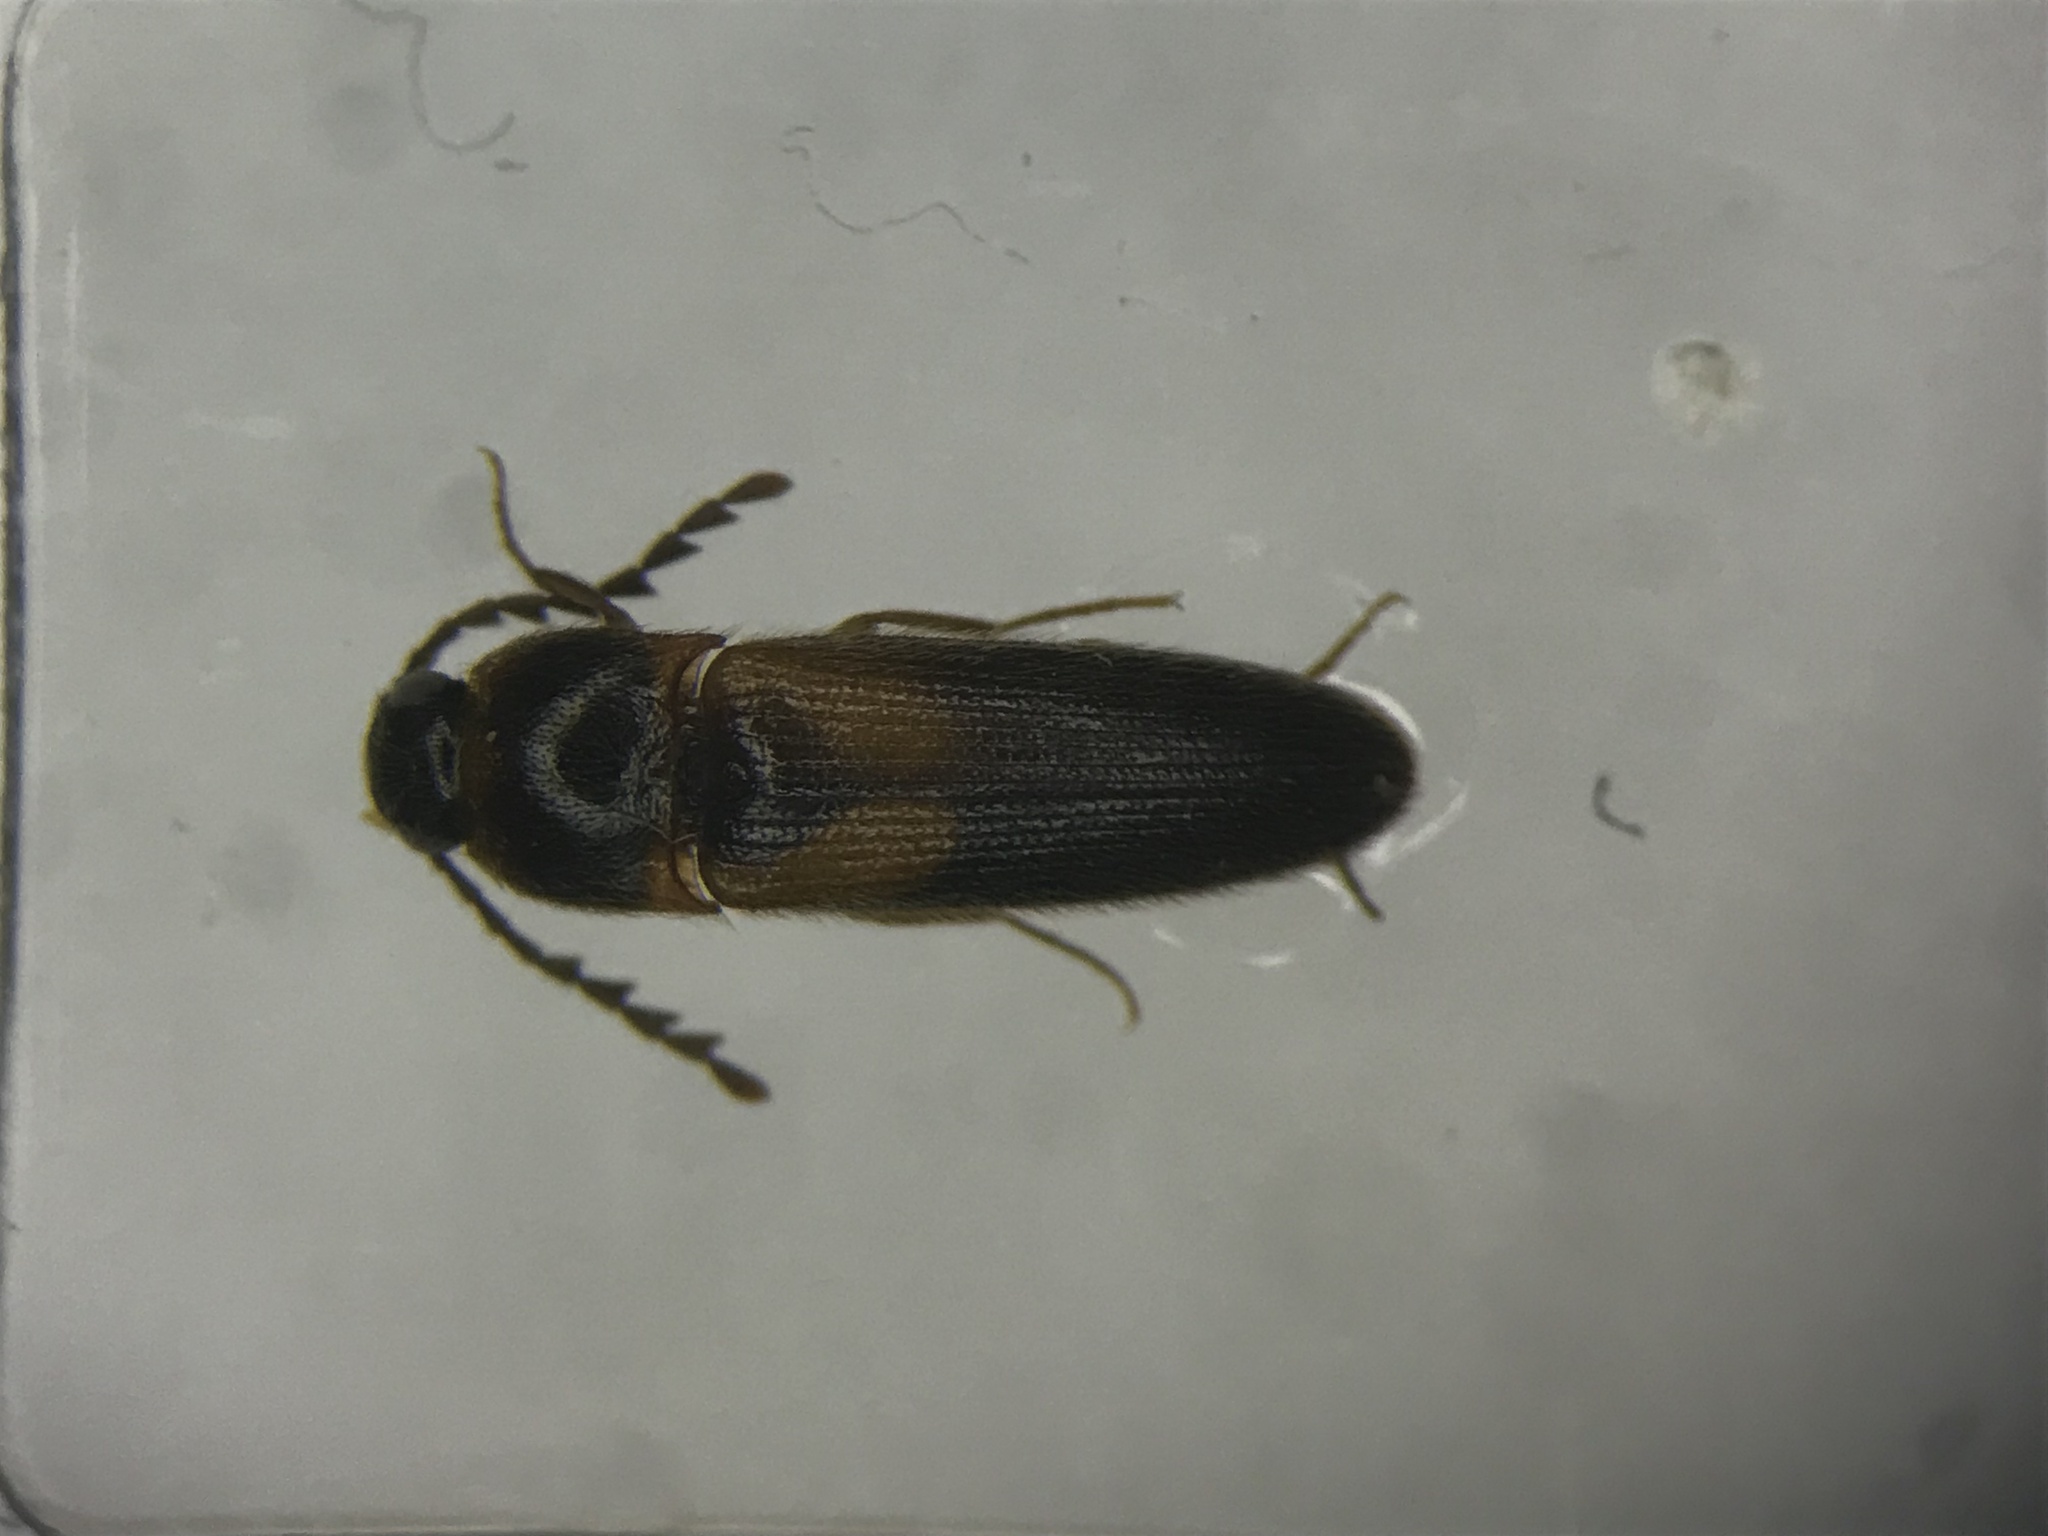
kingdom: Animalia
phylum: Arthropoda
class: Insecta
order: Coleoptera
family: Elateridae
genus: Ampedus
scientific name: Ampedus areolatus
